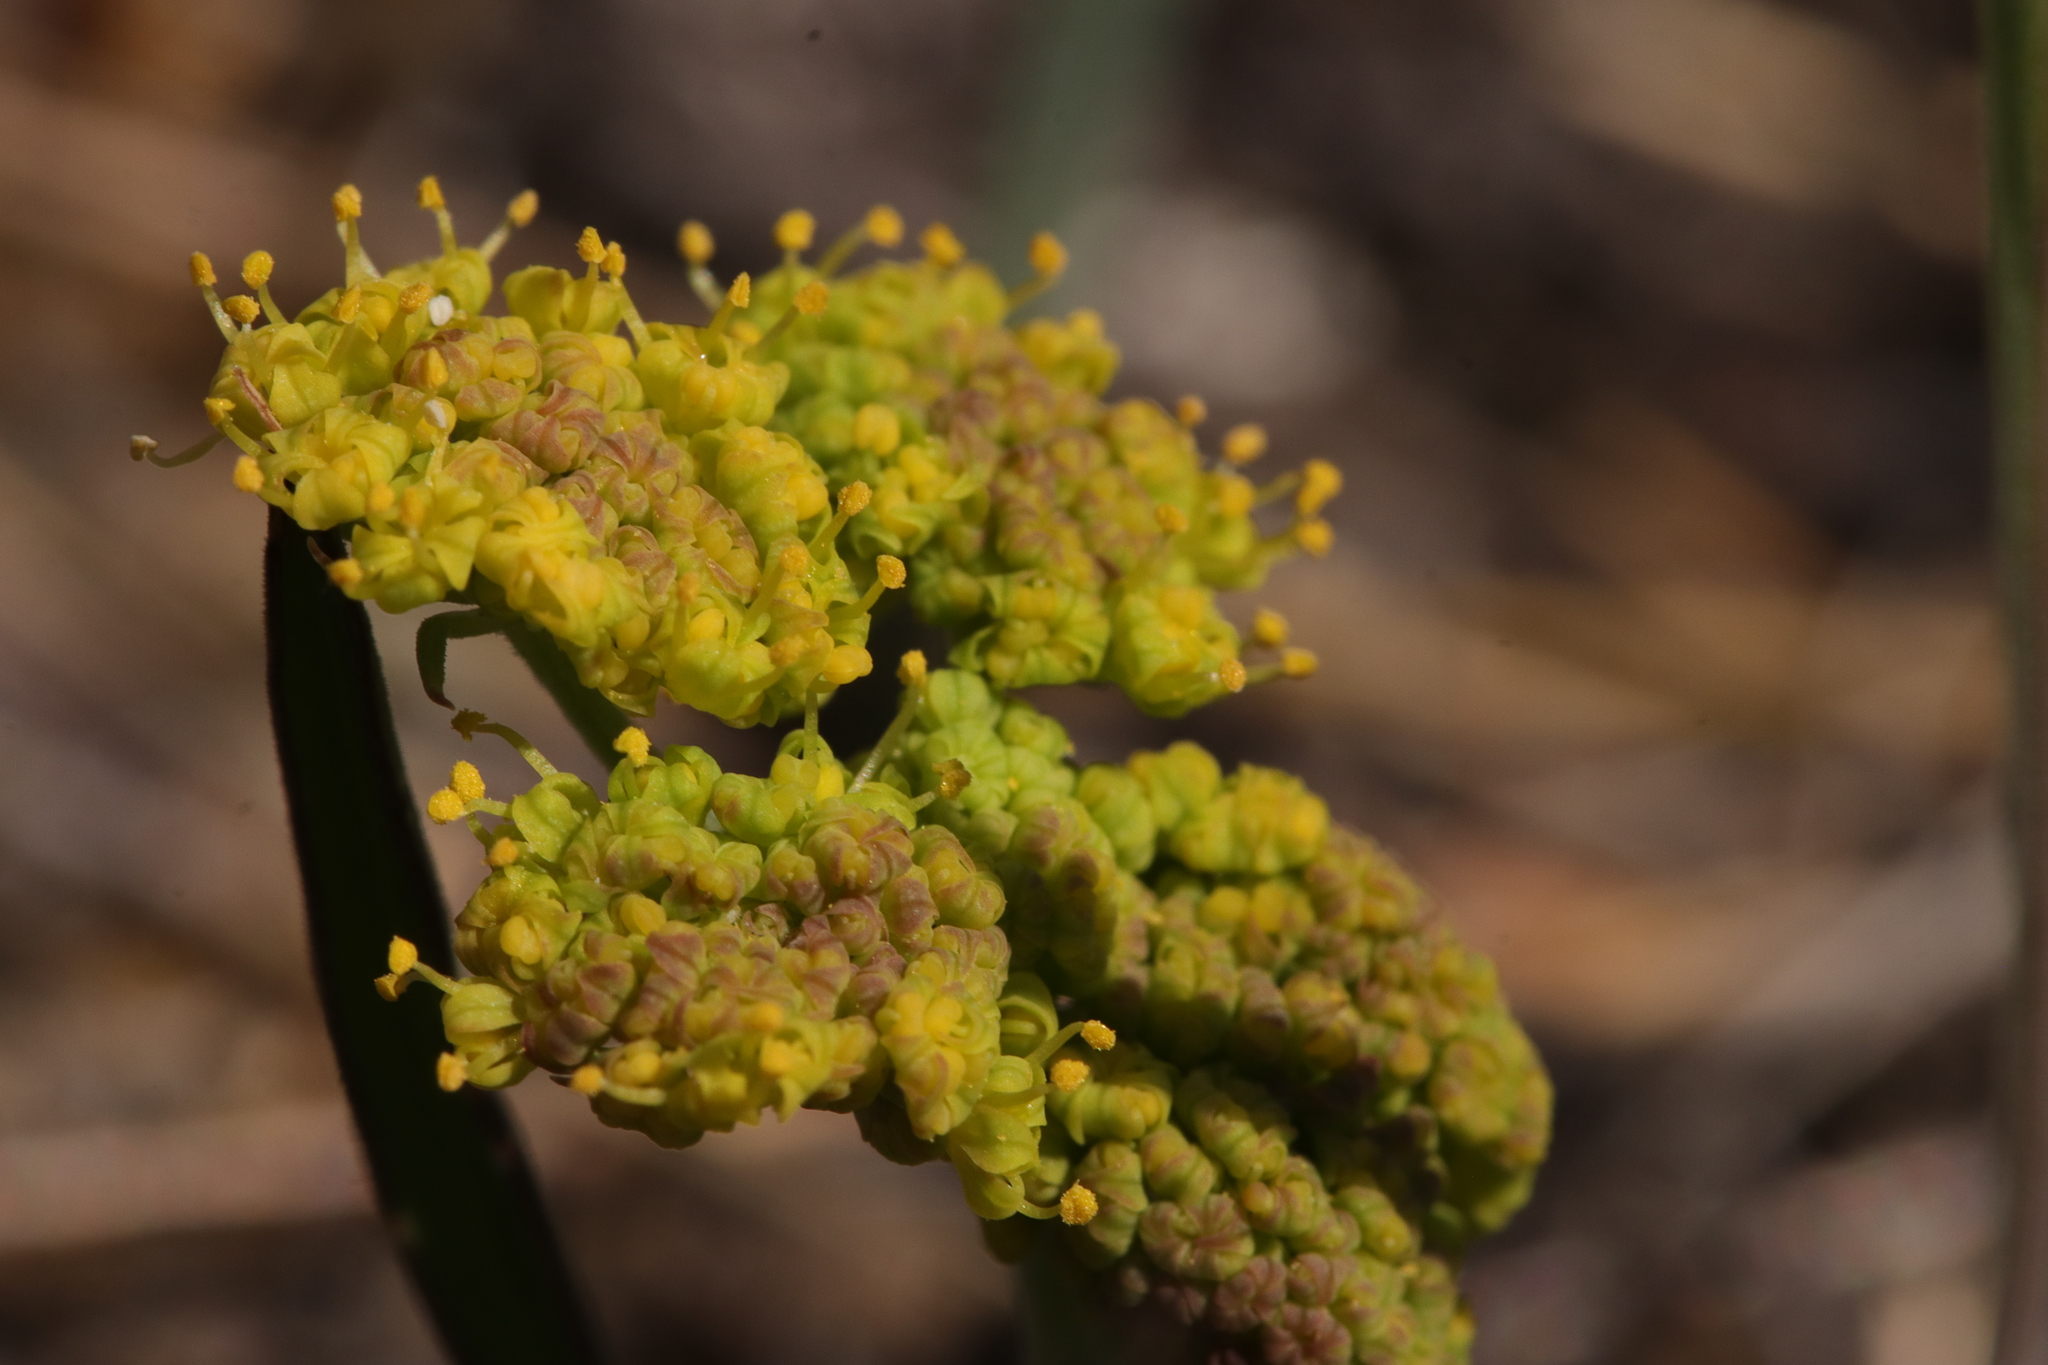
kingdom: Plantae
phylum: Tracheophyta
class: Magnoliopsida
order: Apiales
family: Apiaceae
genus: Lomatium
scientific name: Lomatium triternatum
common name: Ternate lomatium
